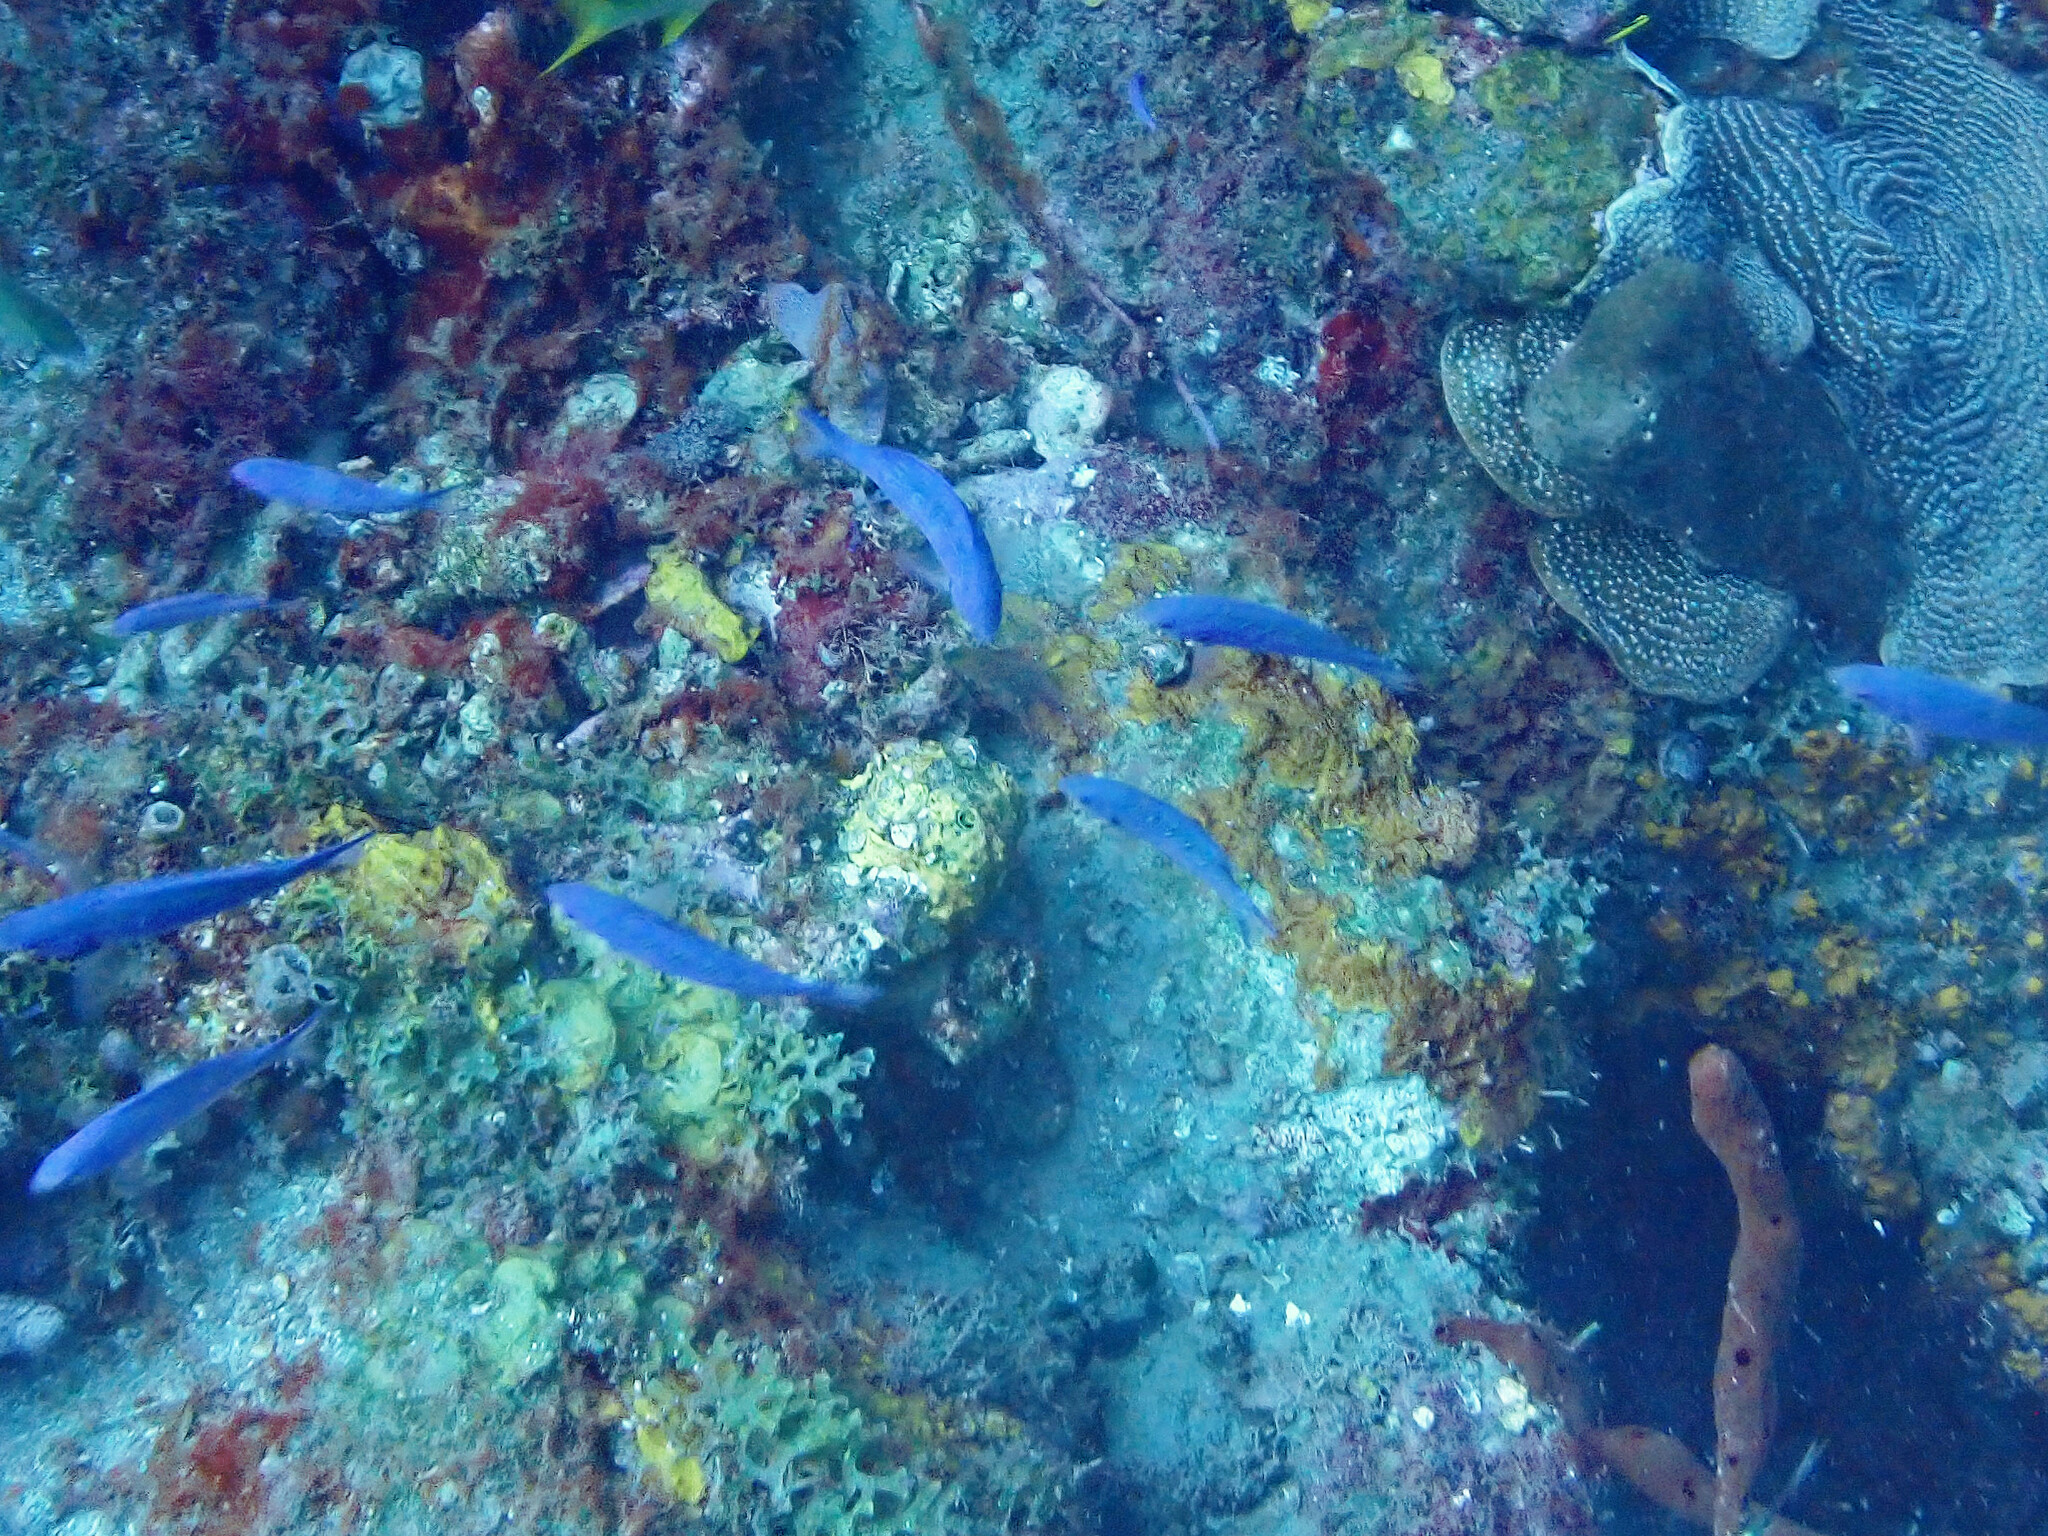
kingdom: Animalia
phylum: Chordata
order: Perciformes
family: Labridae
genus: Bodianus
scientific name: Bodianus
